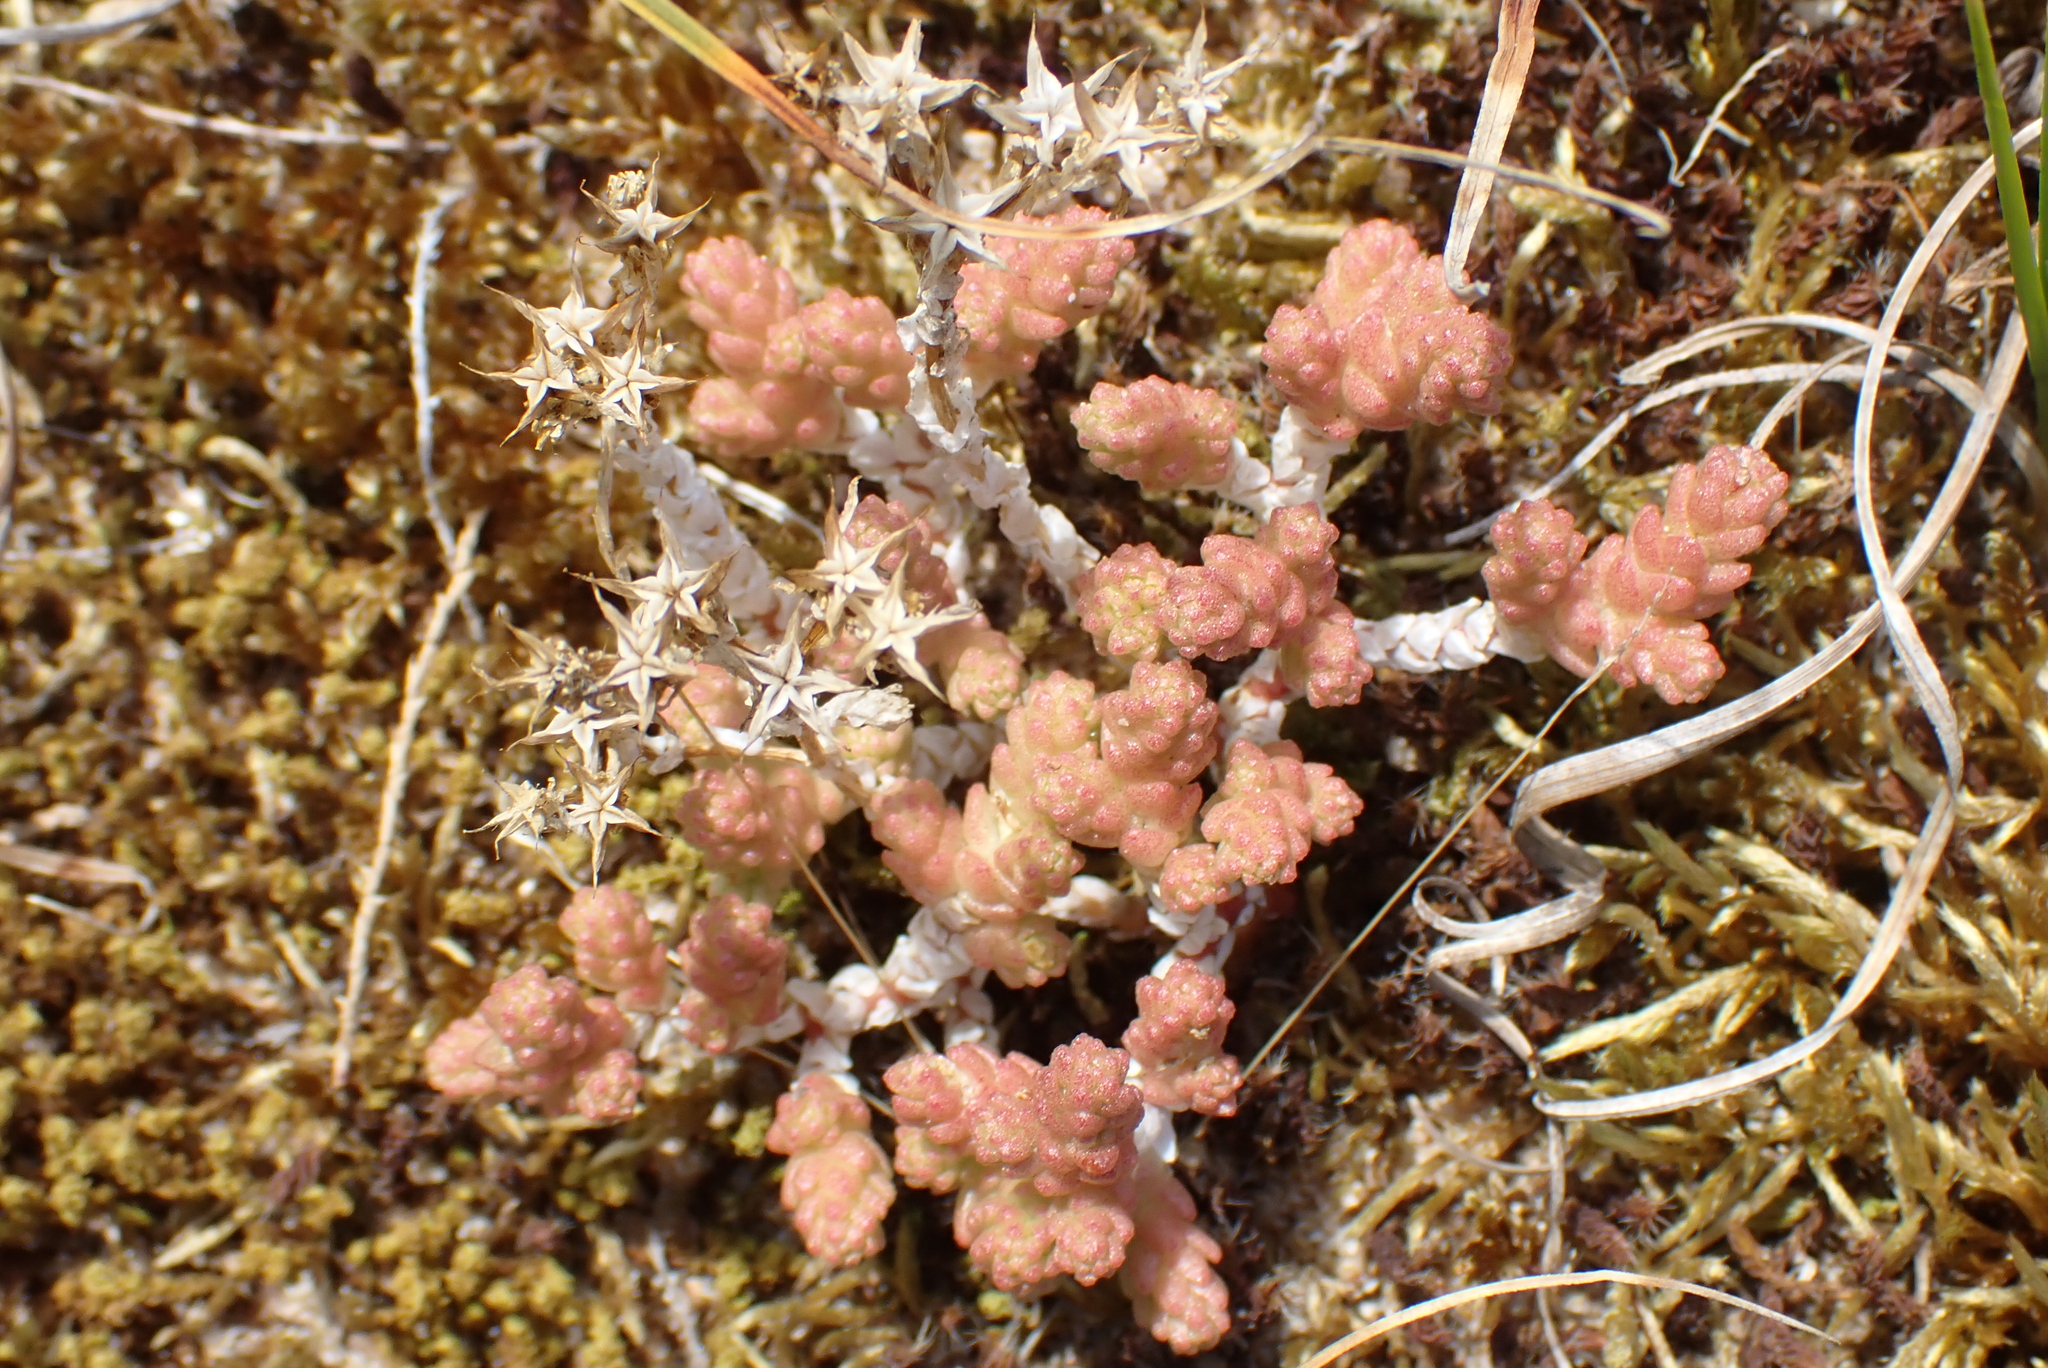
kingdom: Plantae
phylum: Tracheophyta
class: Magnoliopsida
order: Saxifragales
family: Crassulaceae
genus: Sedum
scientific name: Sedum acre
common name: Biting stonecrop
